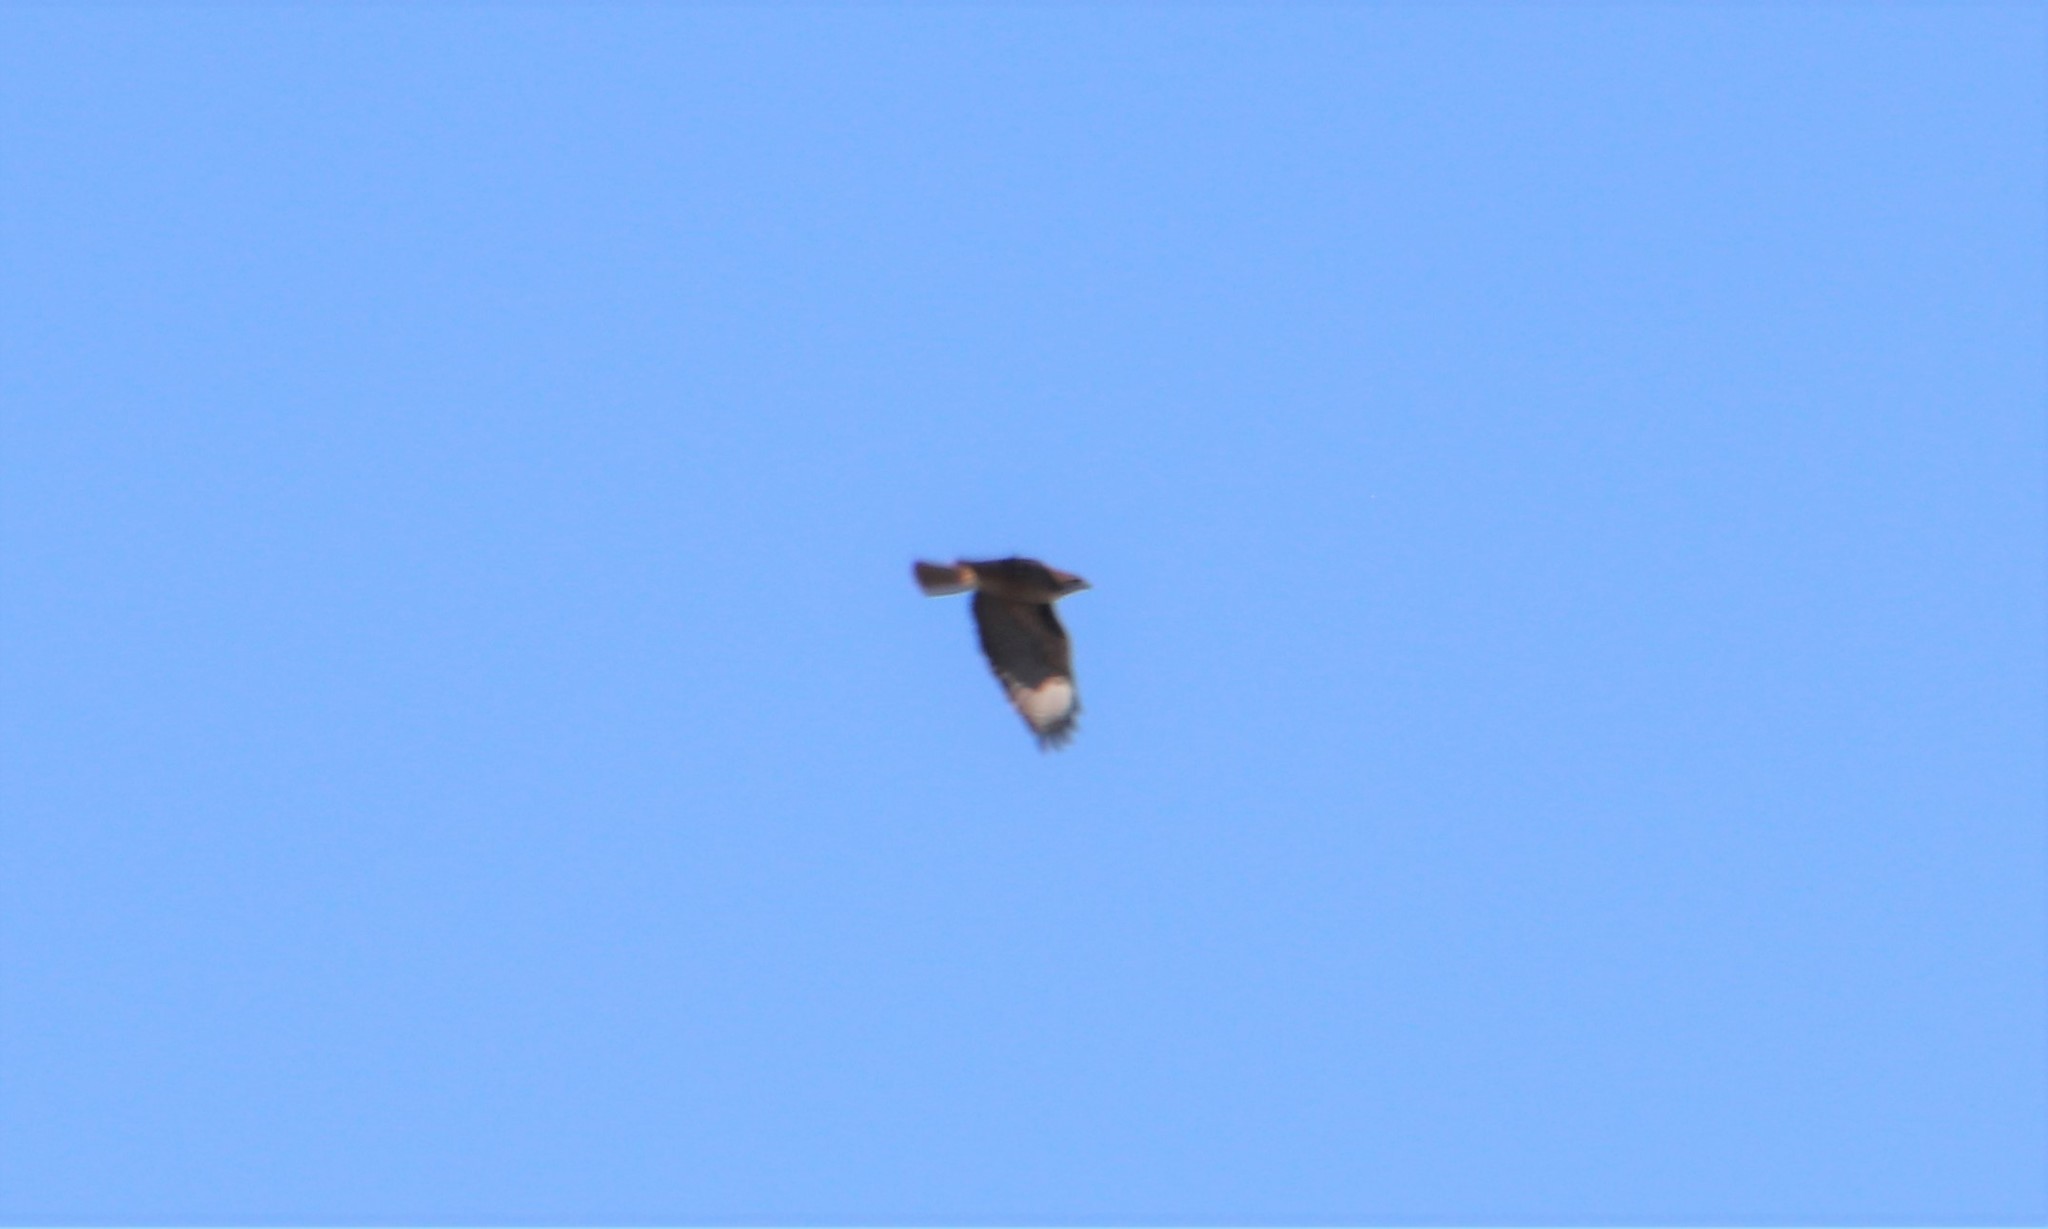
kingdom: Animalia
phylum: Chordata
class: Aves
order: Accipitriformes
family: Accipitridae
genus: Buteo
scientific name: Buteo jamaicensis
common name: Red-tailed hawk
